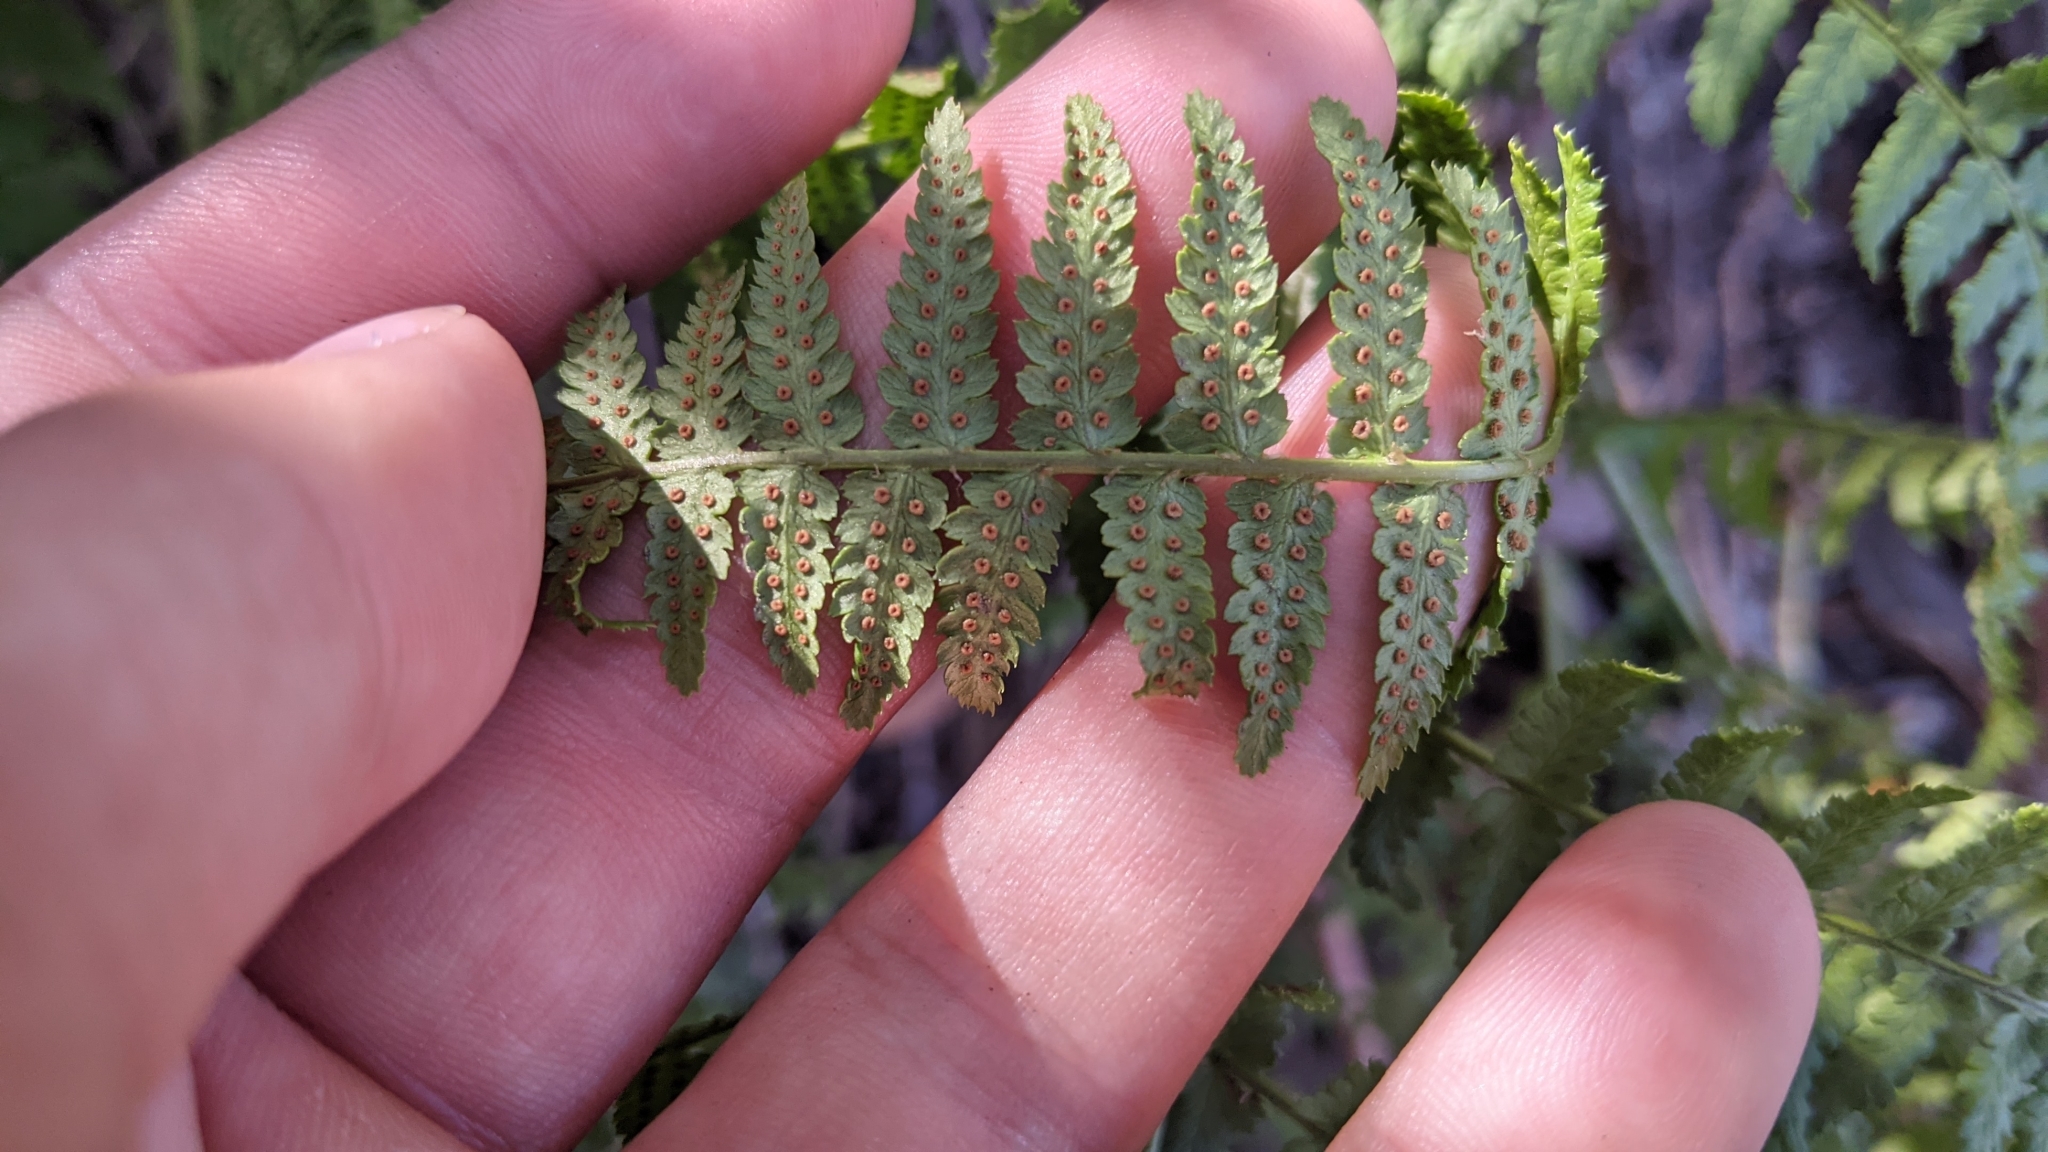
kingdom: Plantae
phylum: Tracheophyta
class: Polypodiopsida
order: Polypodiales
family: Dryopteridaceae
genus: Dryopteris
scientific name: Dryopteris arguta
